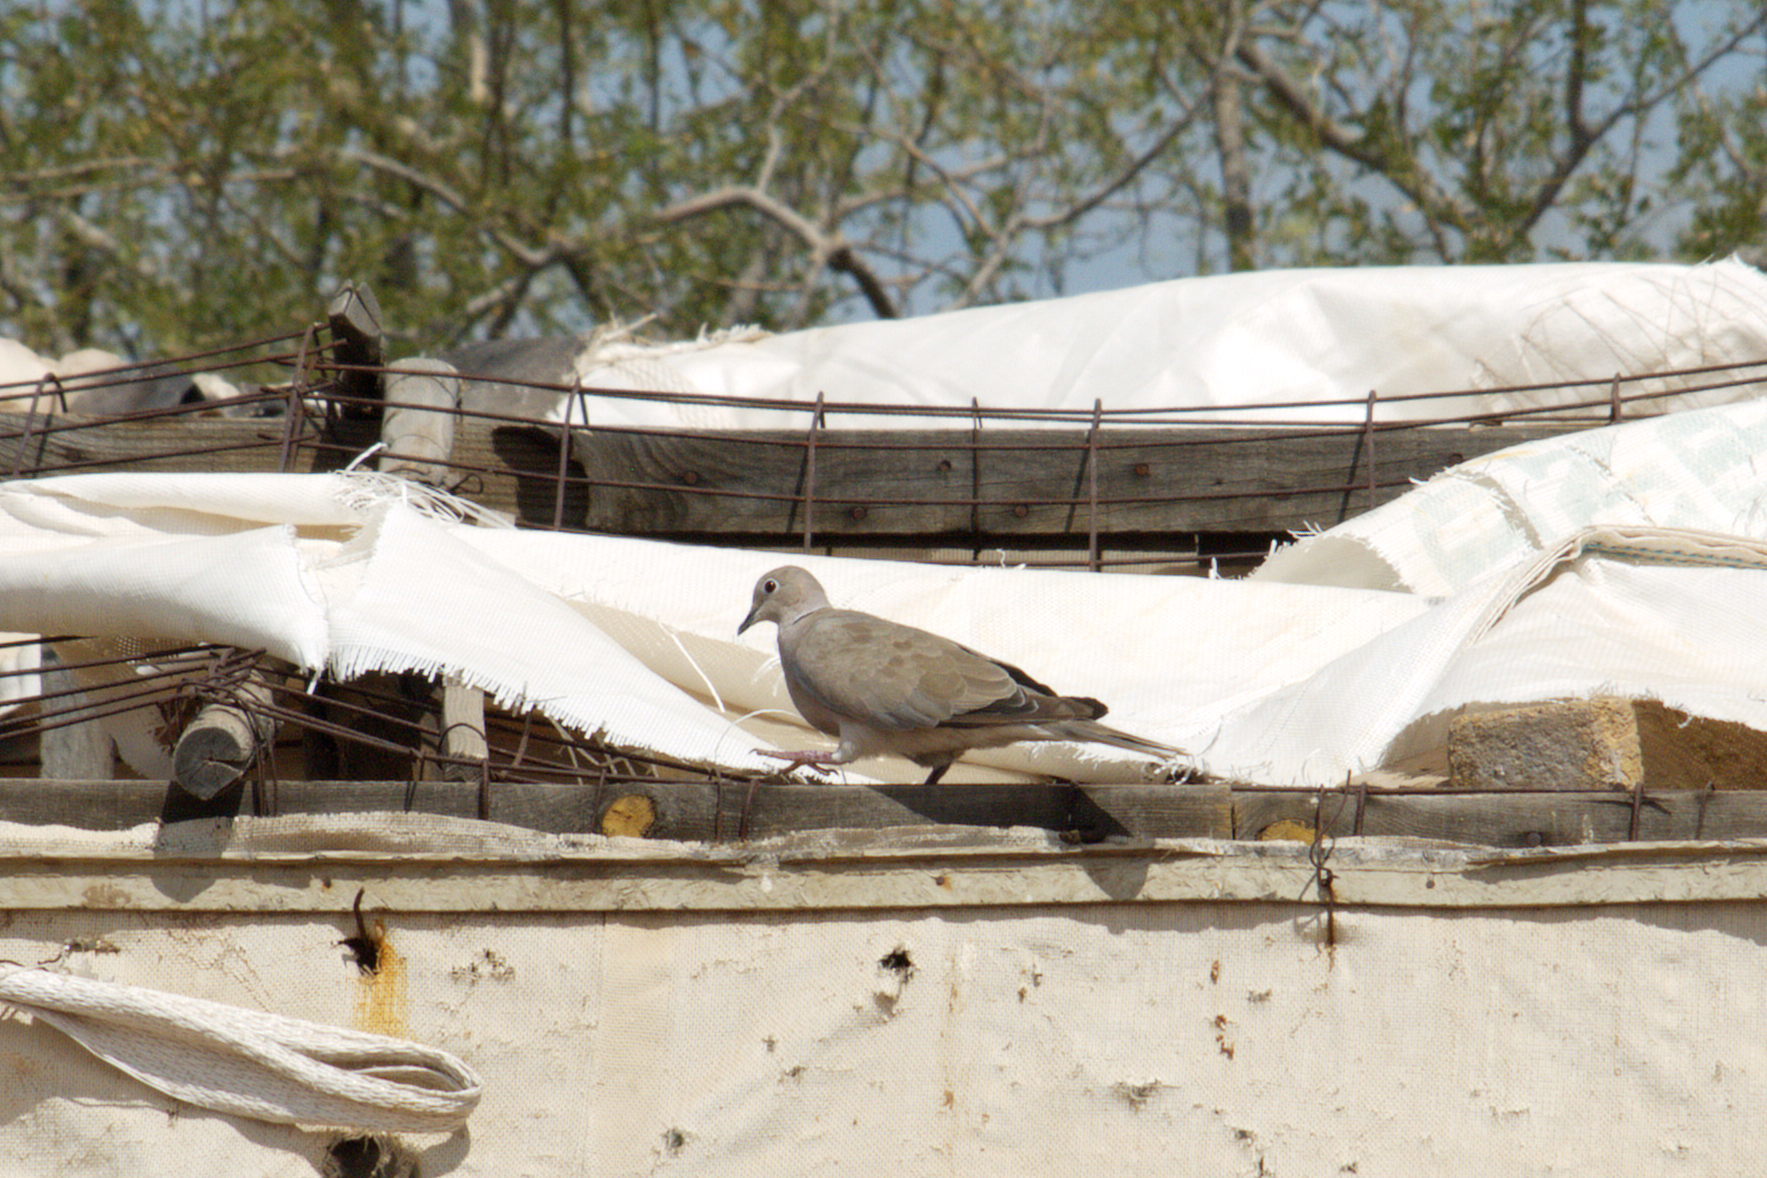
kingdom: Animalia
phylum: Chordata
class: Aves
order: Columbiformes
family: Columbidae
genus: Streptopelia
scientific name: Streptopelia decaocto
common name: Eurasian collared dove
